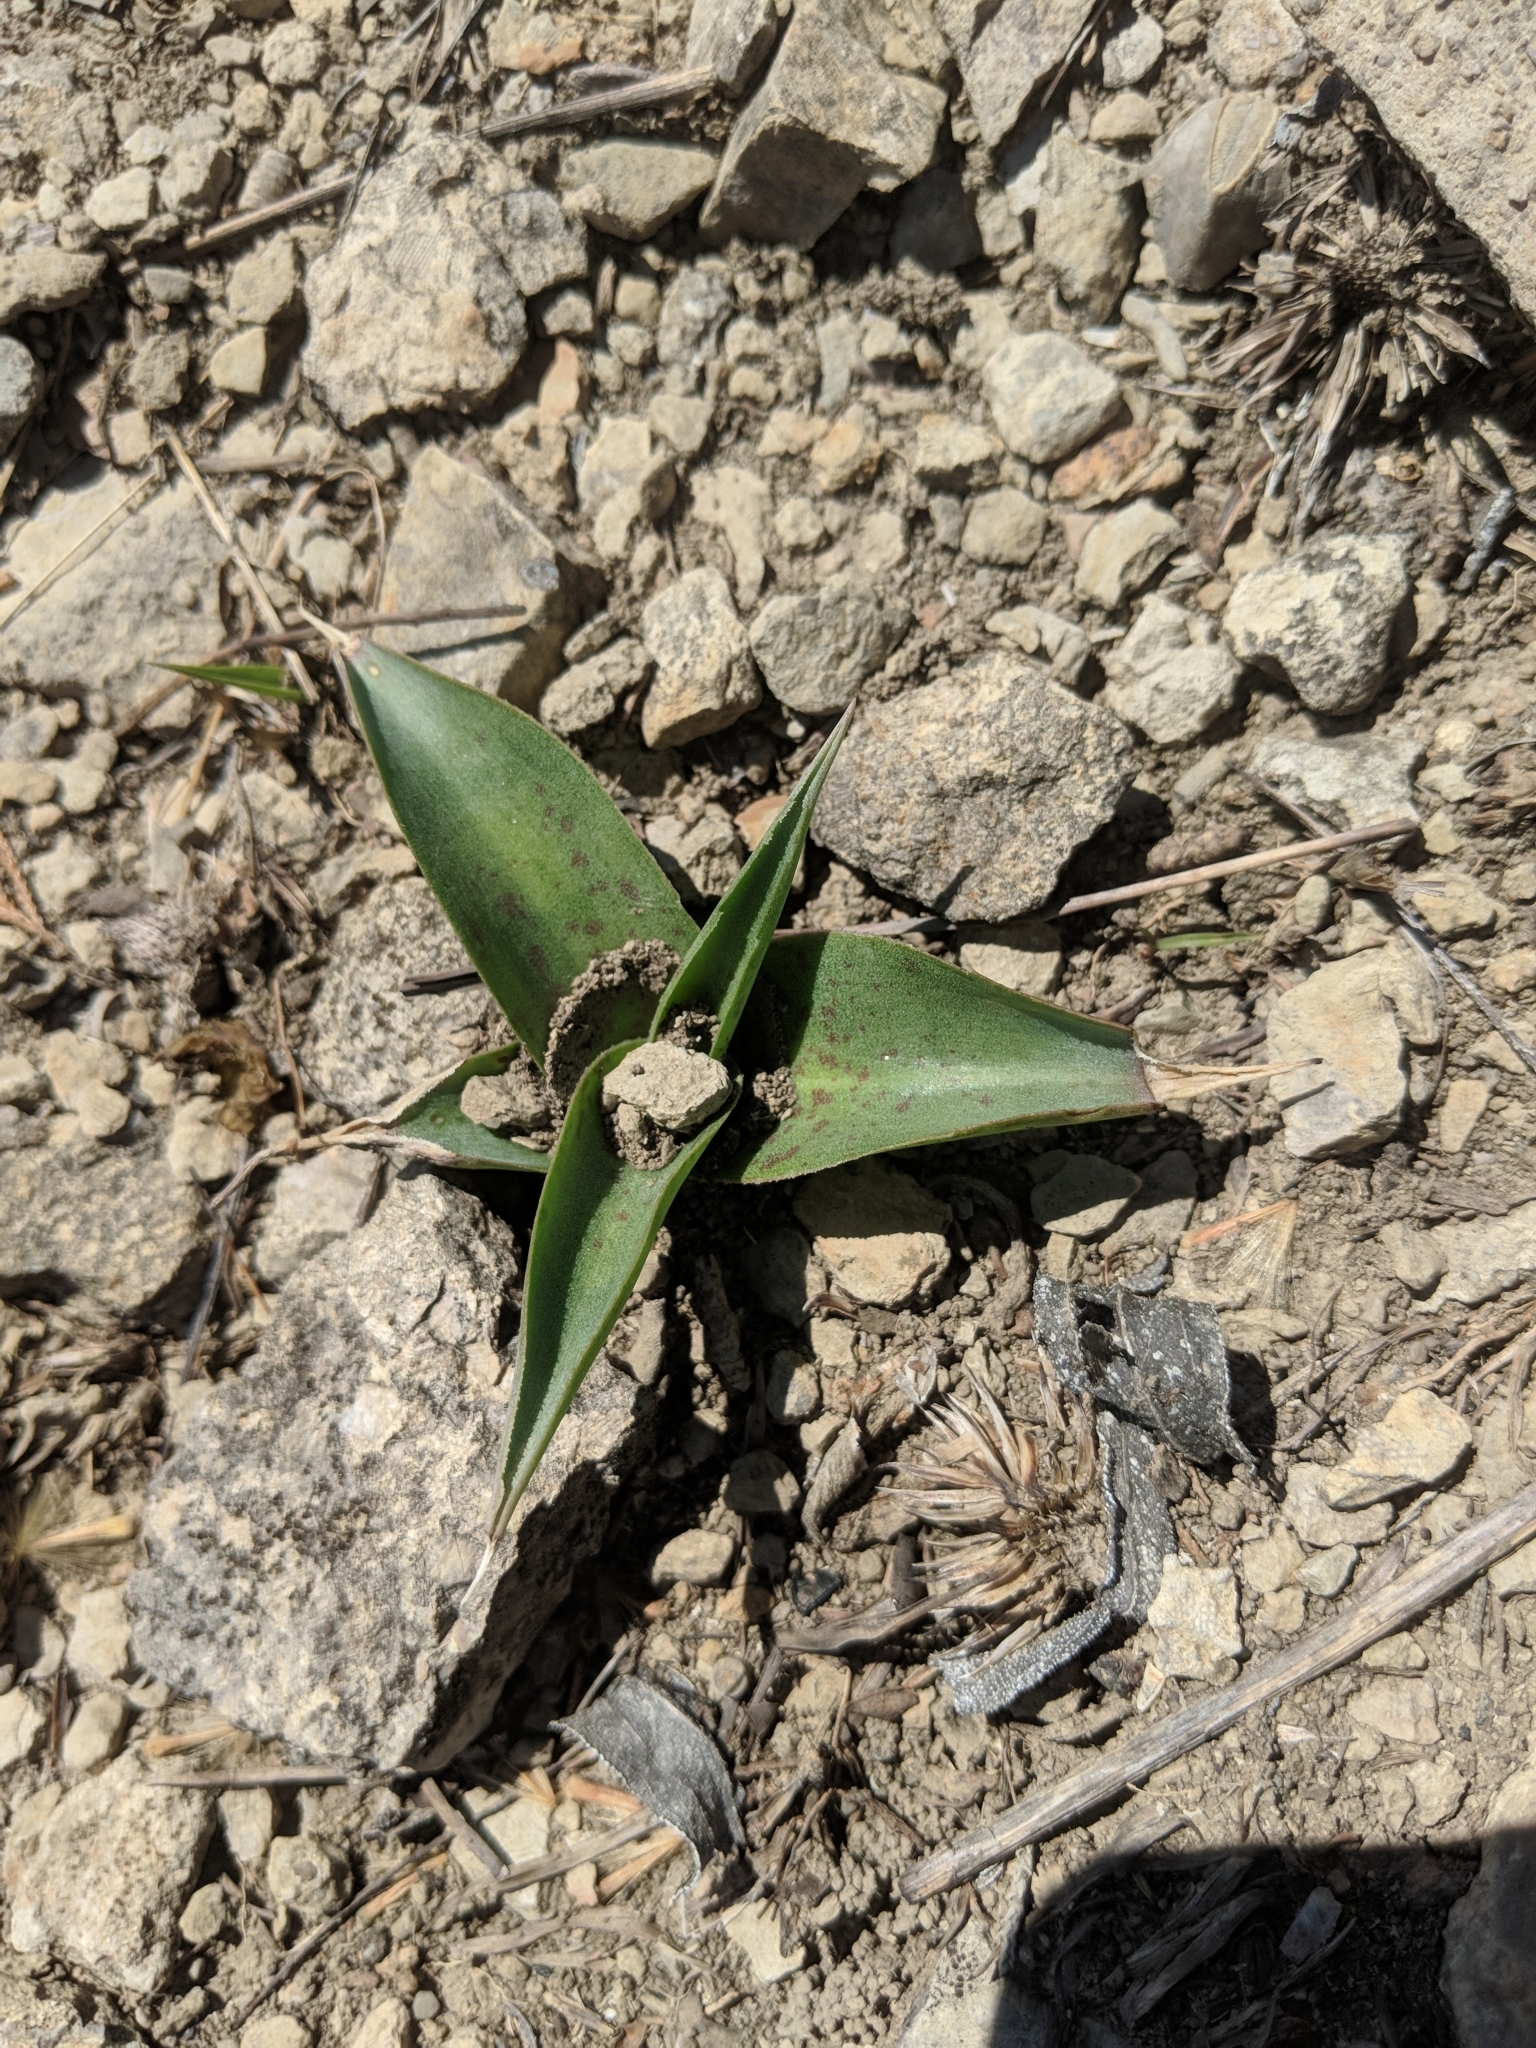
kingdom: Plantae
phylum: Tracheophyta
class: Liliopsida
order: Asparagales
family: Asparagaceae
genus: Agave
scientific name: Agave virginica
